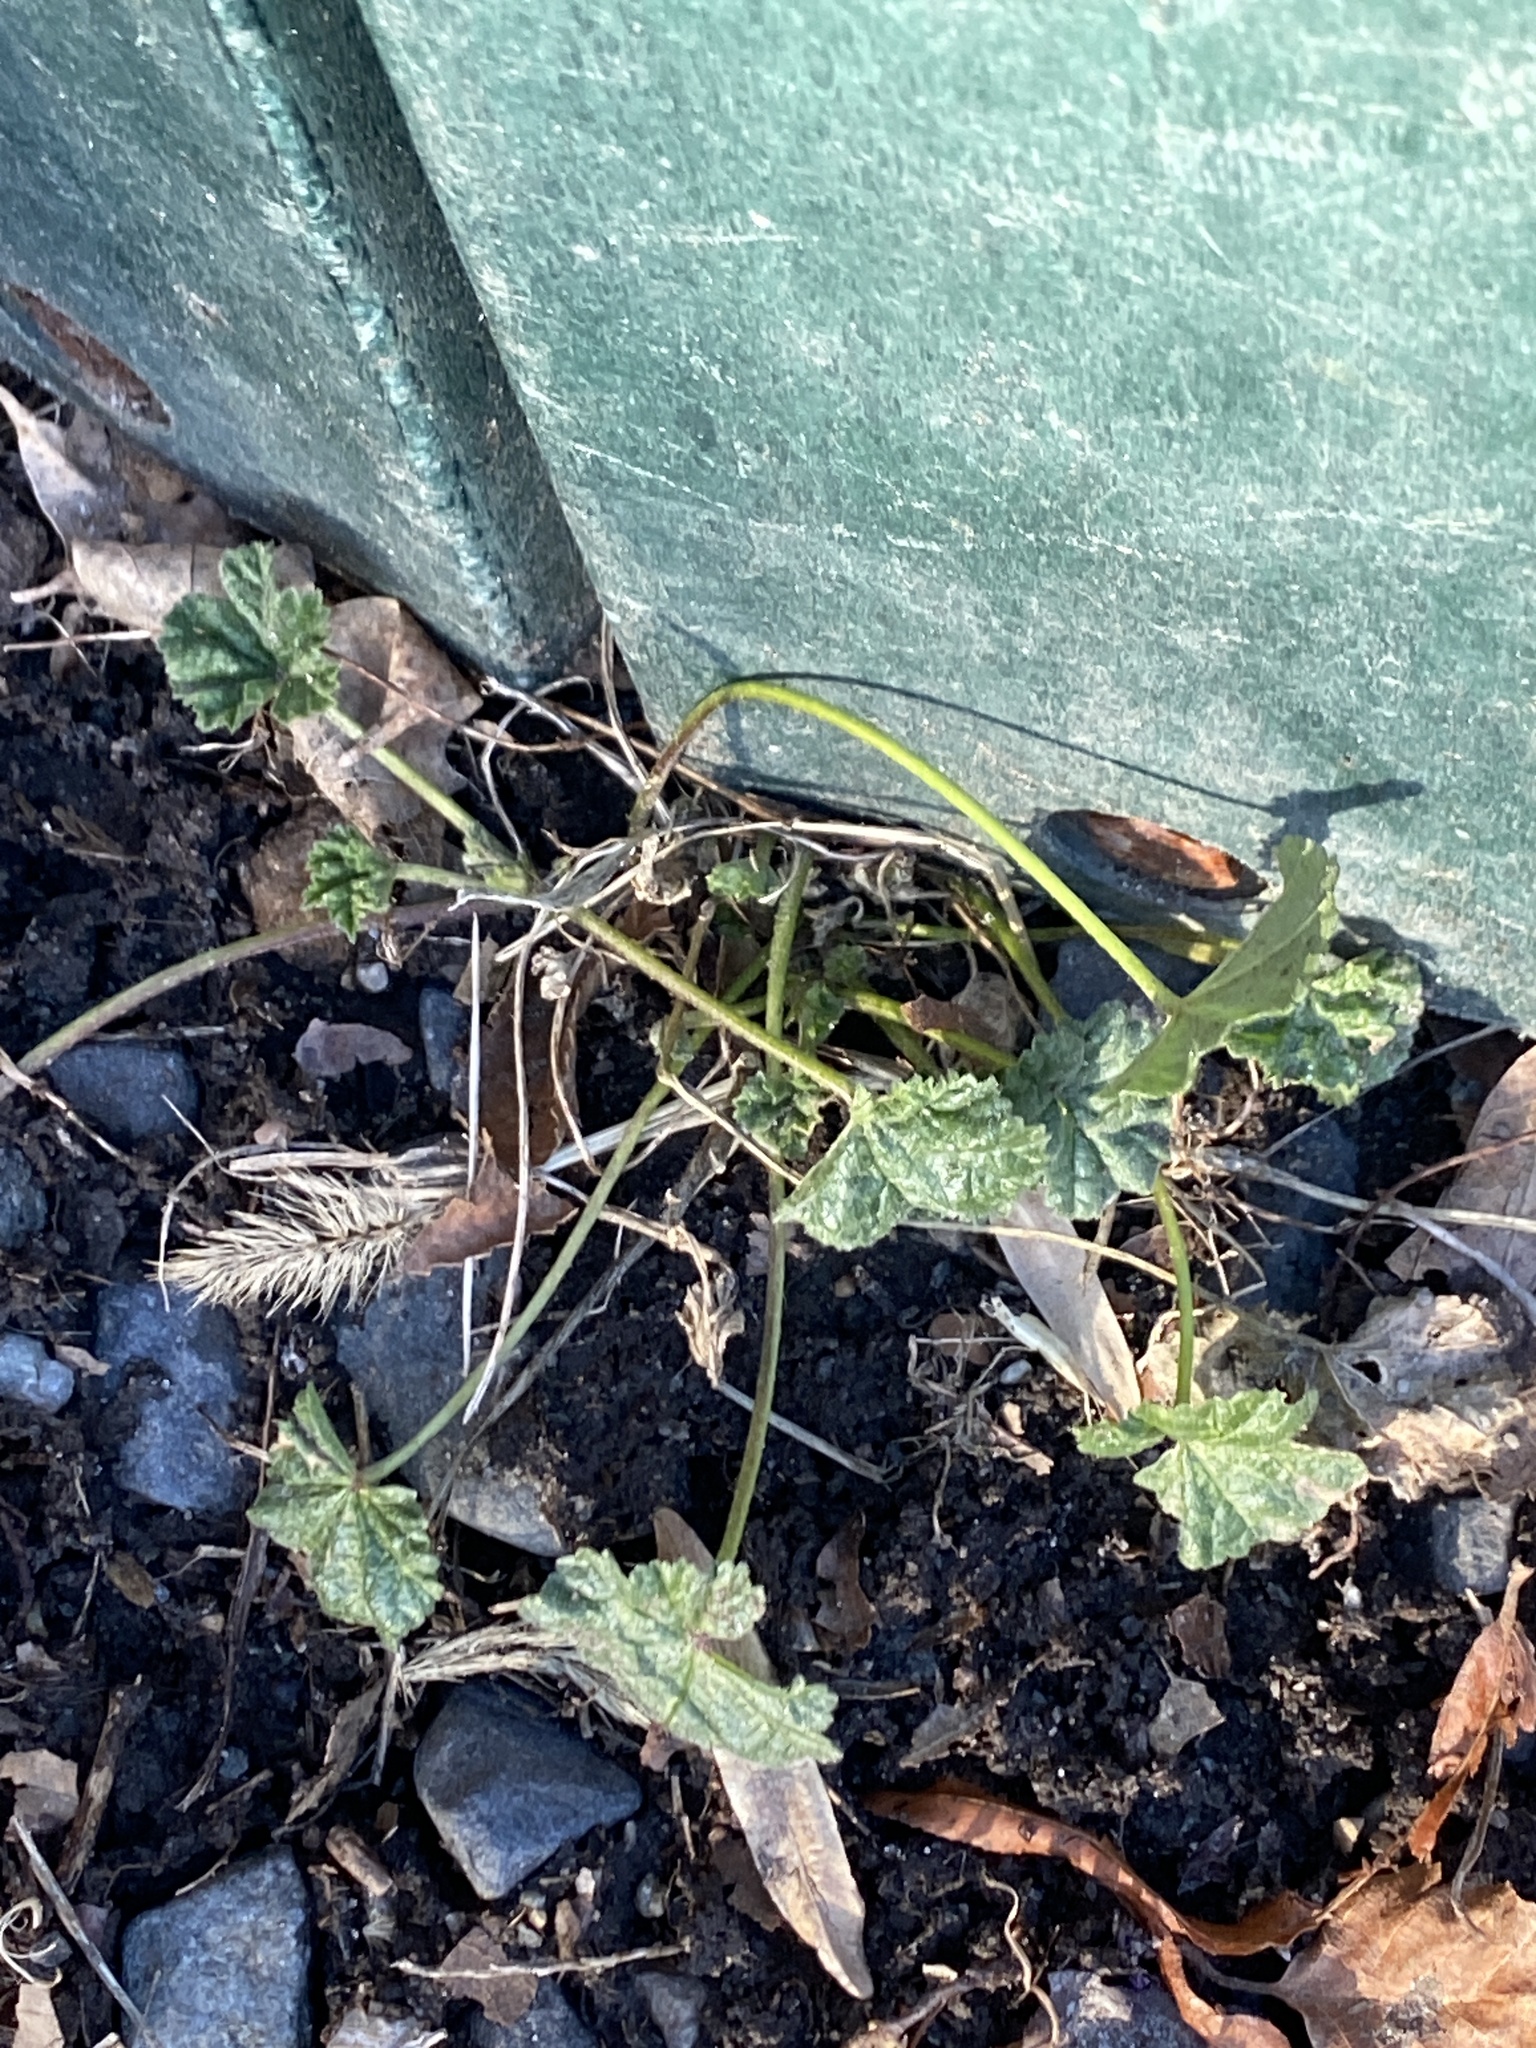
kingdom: Plantae
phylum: Tracheophyta
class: Magnoliopsida
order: Malvales
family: Malvaceae
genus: Malva
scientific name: Malva neglecta
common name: Common mallow
